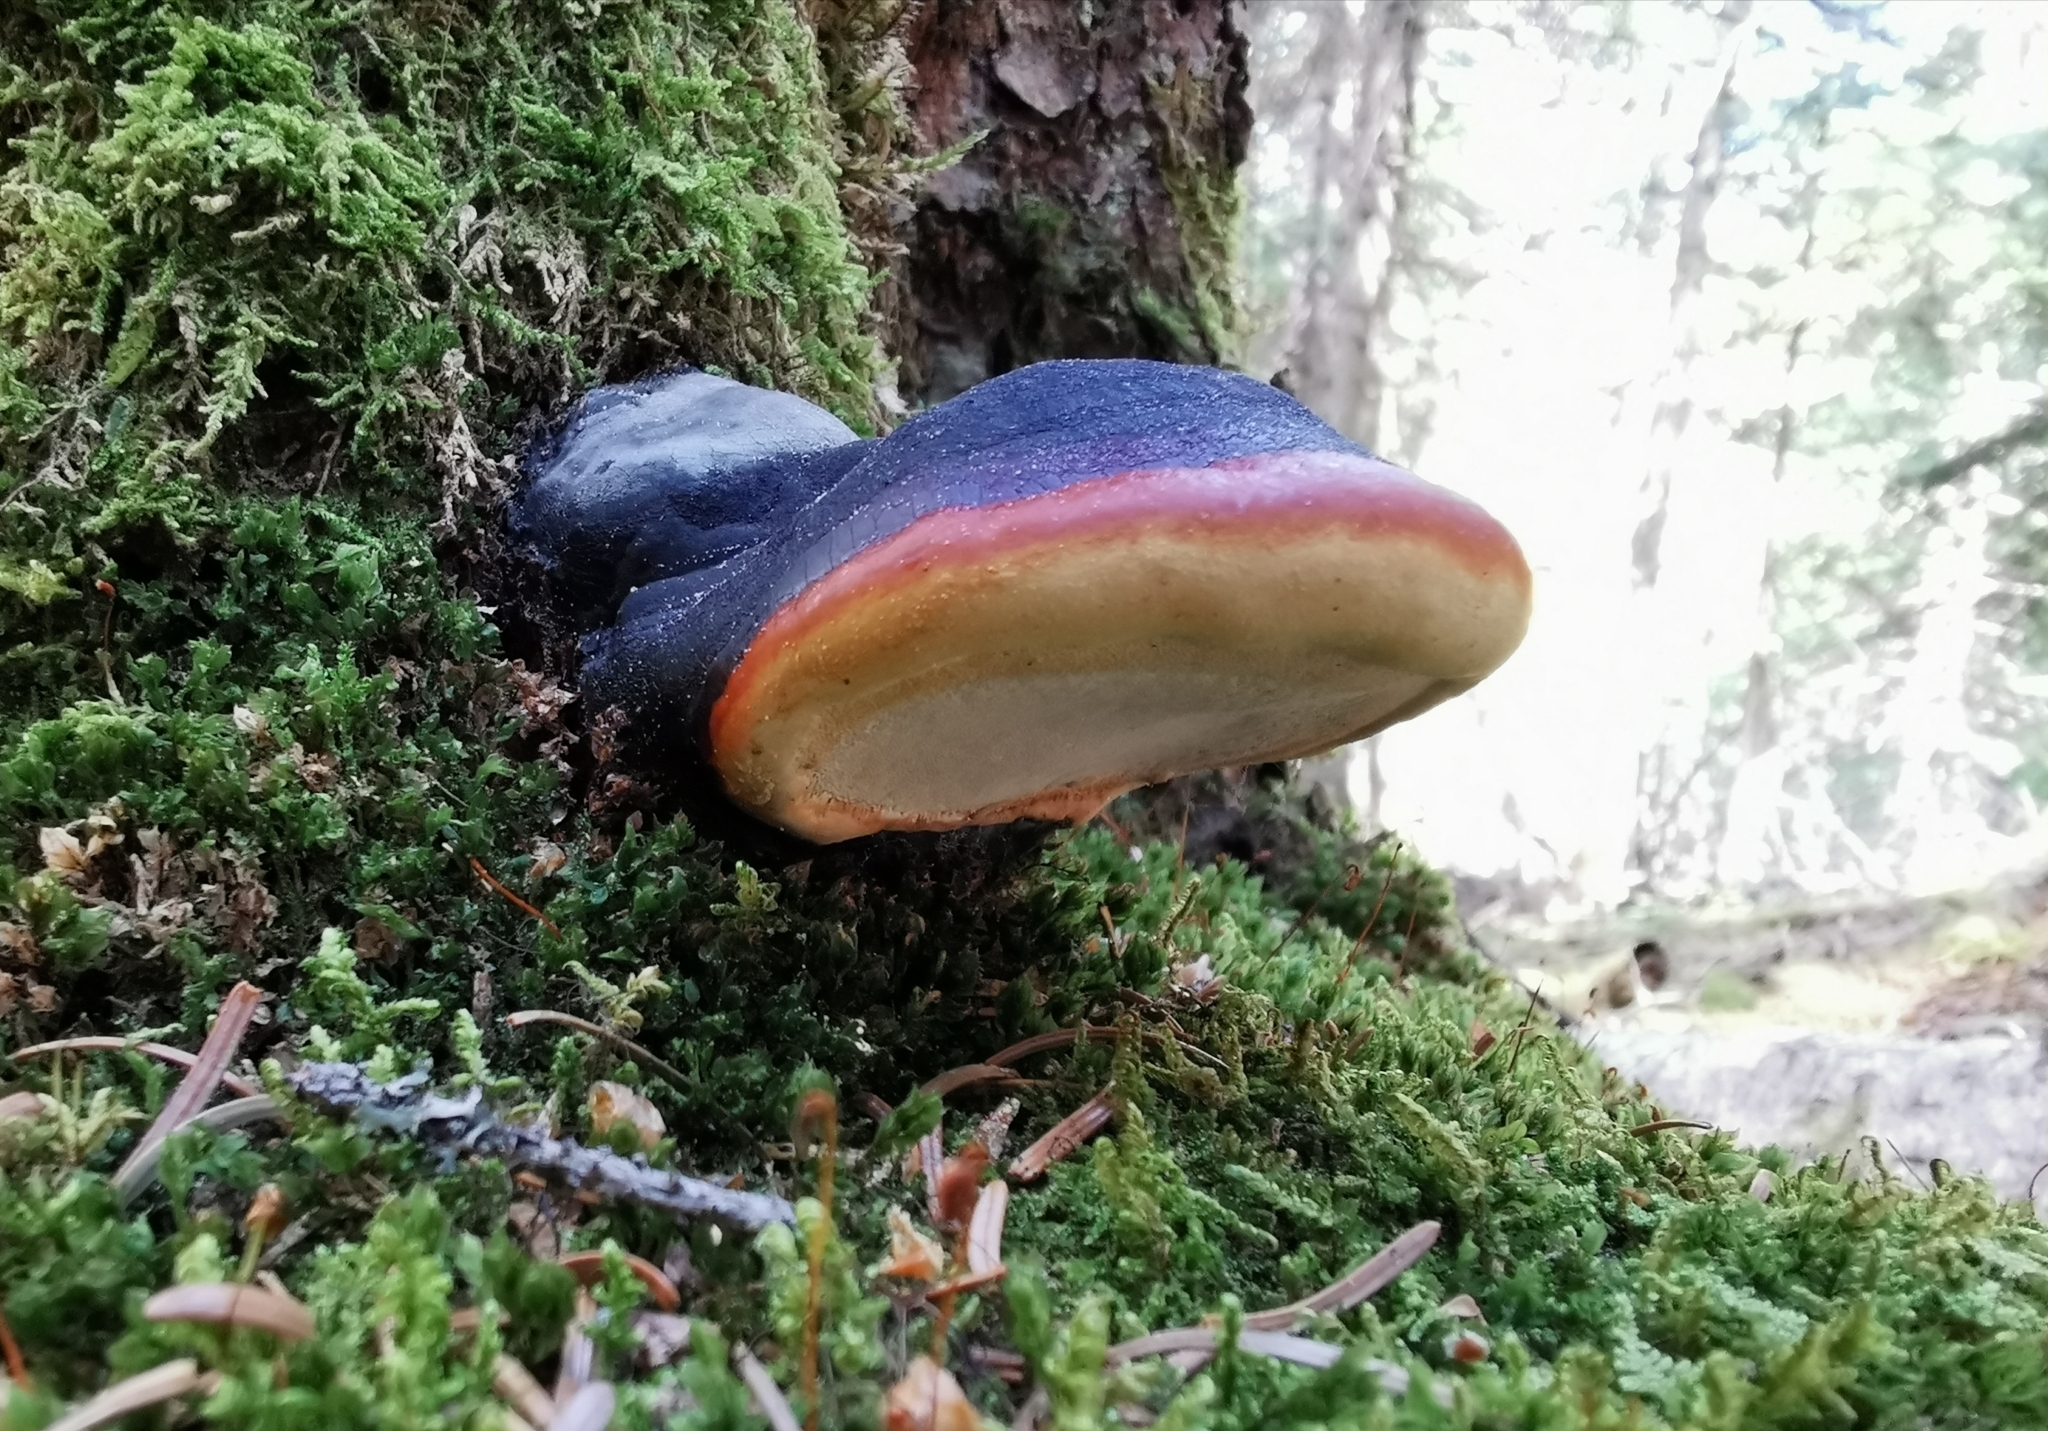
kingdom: Fungi
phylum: Basidiomycota
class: Agaricomycetes
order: Polyporales
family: Fomitopsidaceae
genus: Fomitopsis
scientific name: Fomitopsis pinicola
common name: Red-belted bracket
